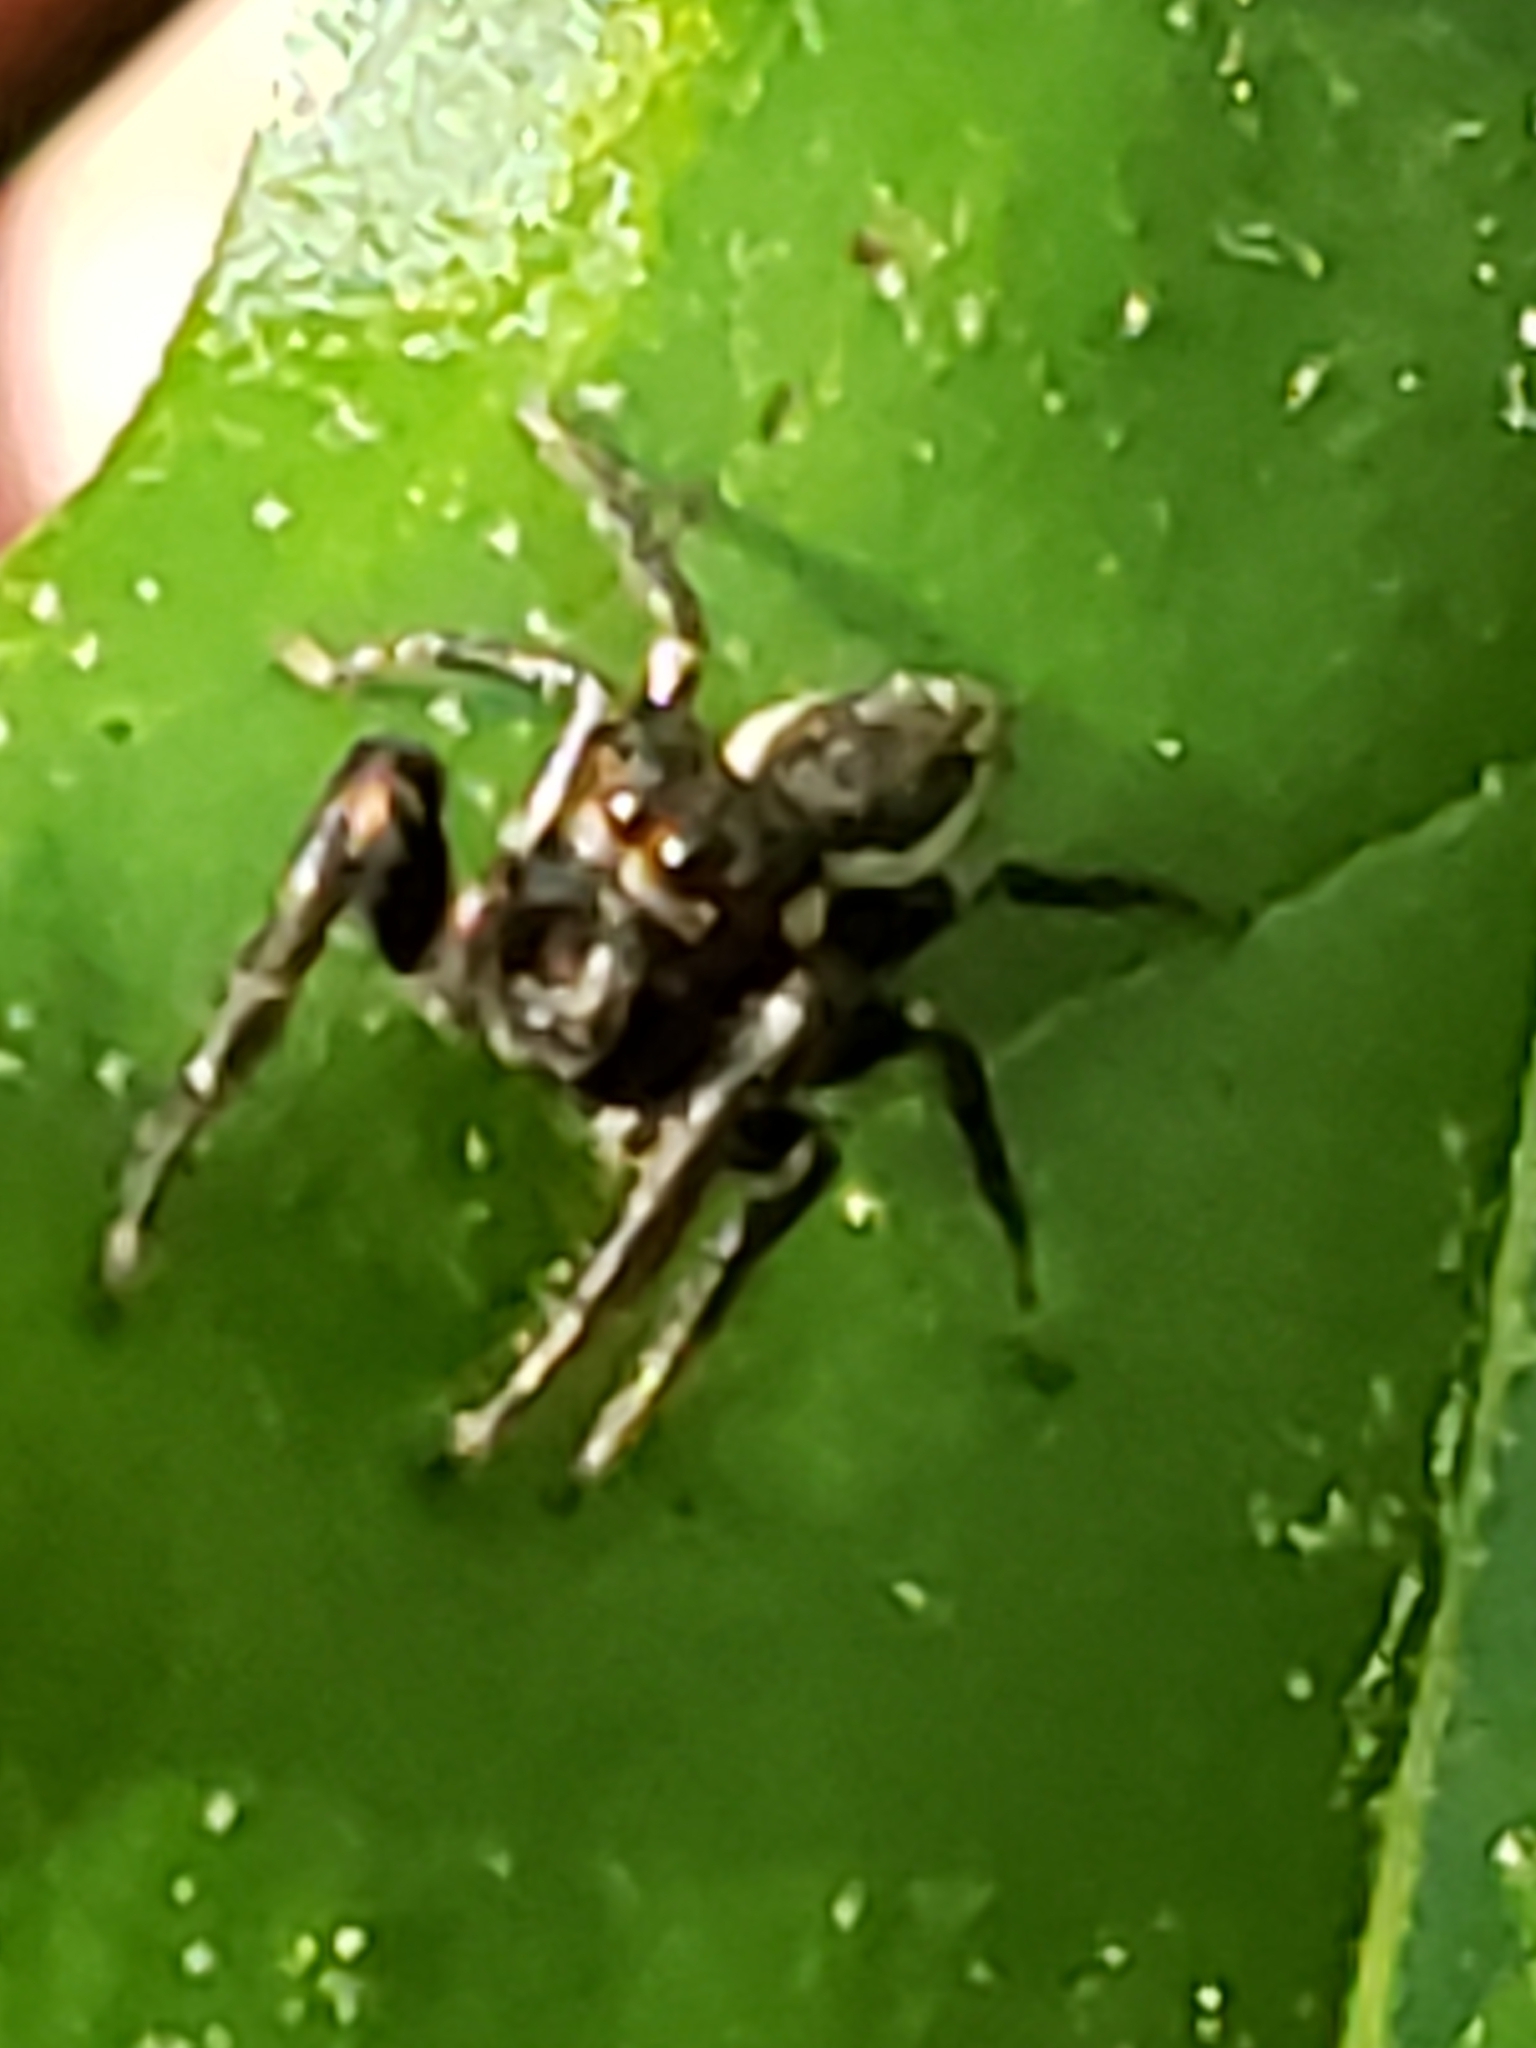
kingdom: Animalia
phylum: Arthropoda
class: Arachnida
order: Araneae
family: Salticidae
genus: Eris
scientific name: Eris militaris
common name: Bronze jumper
